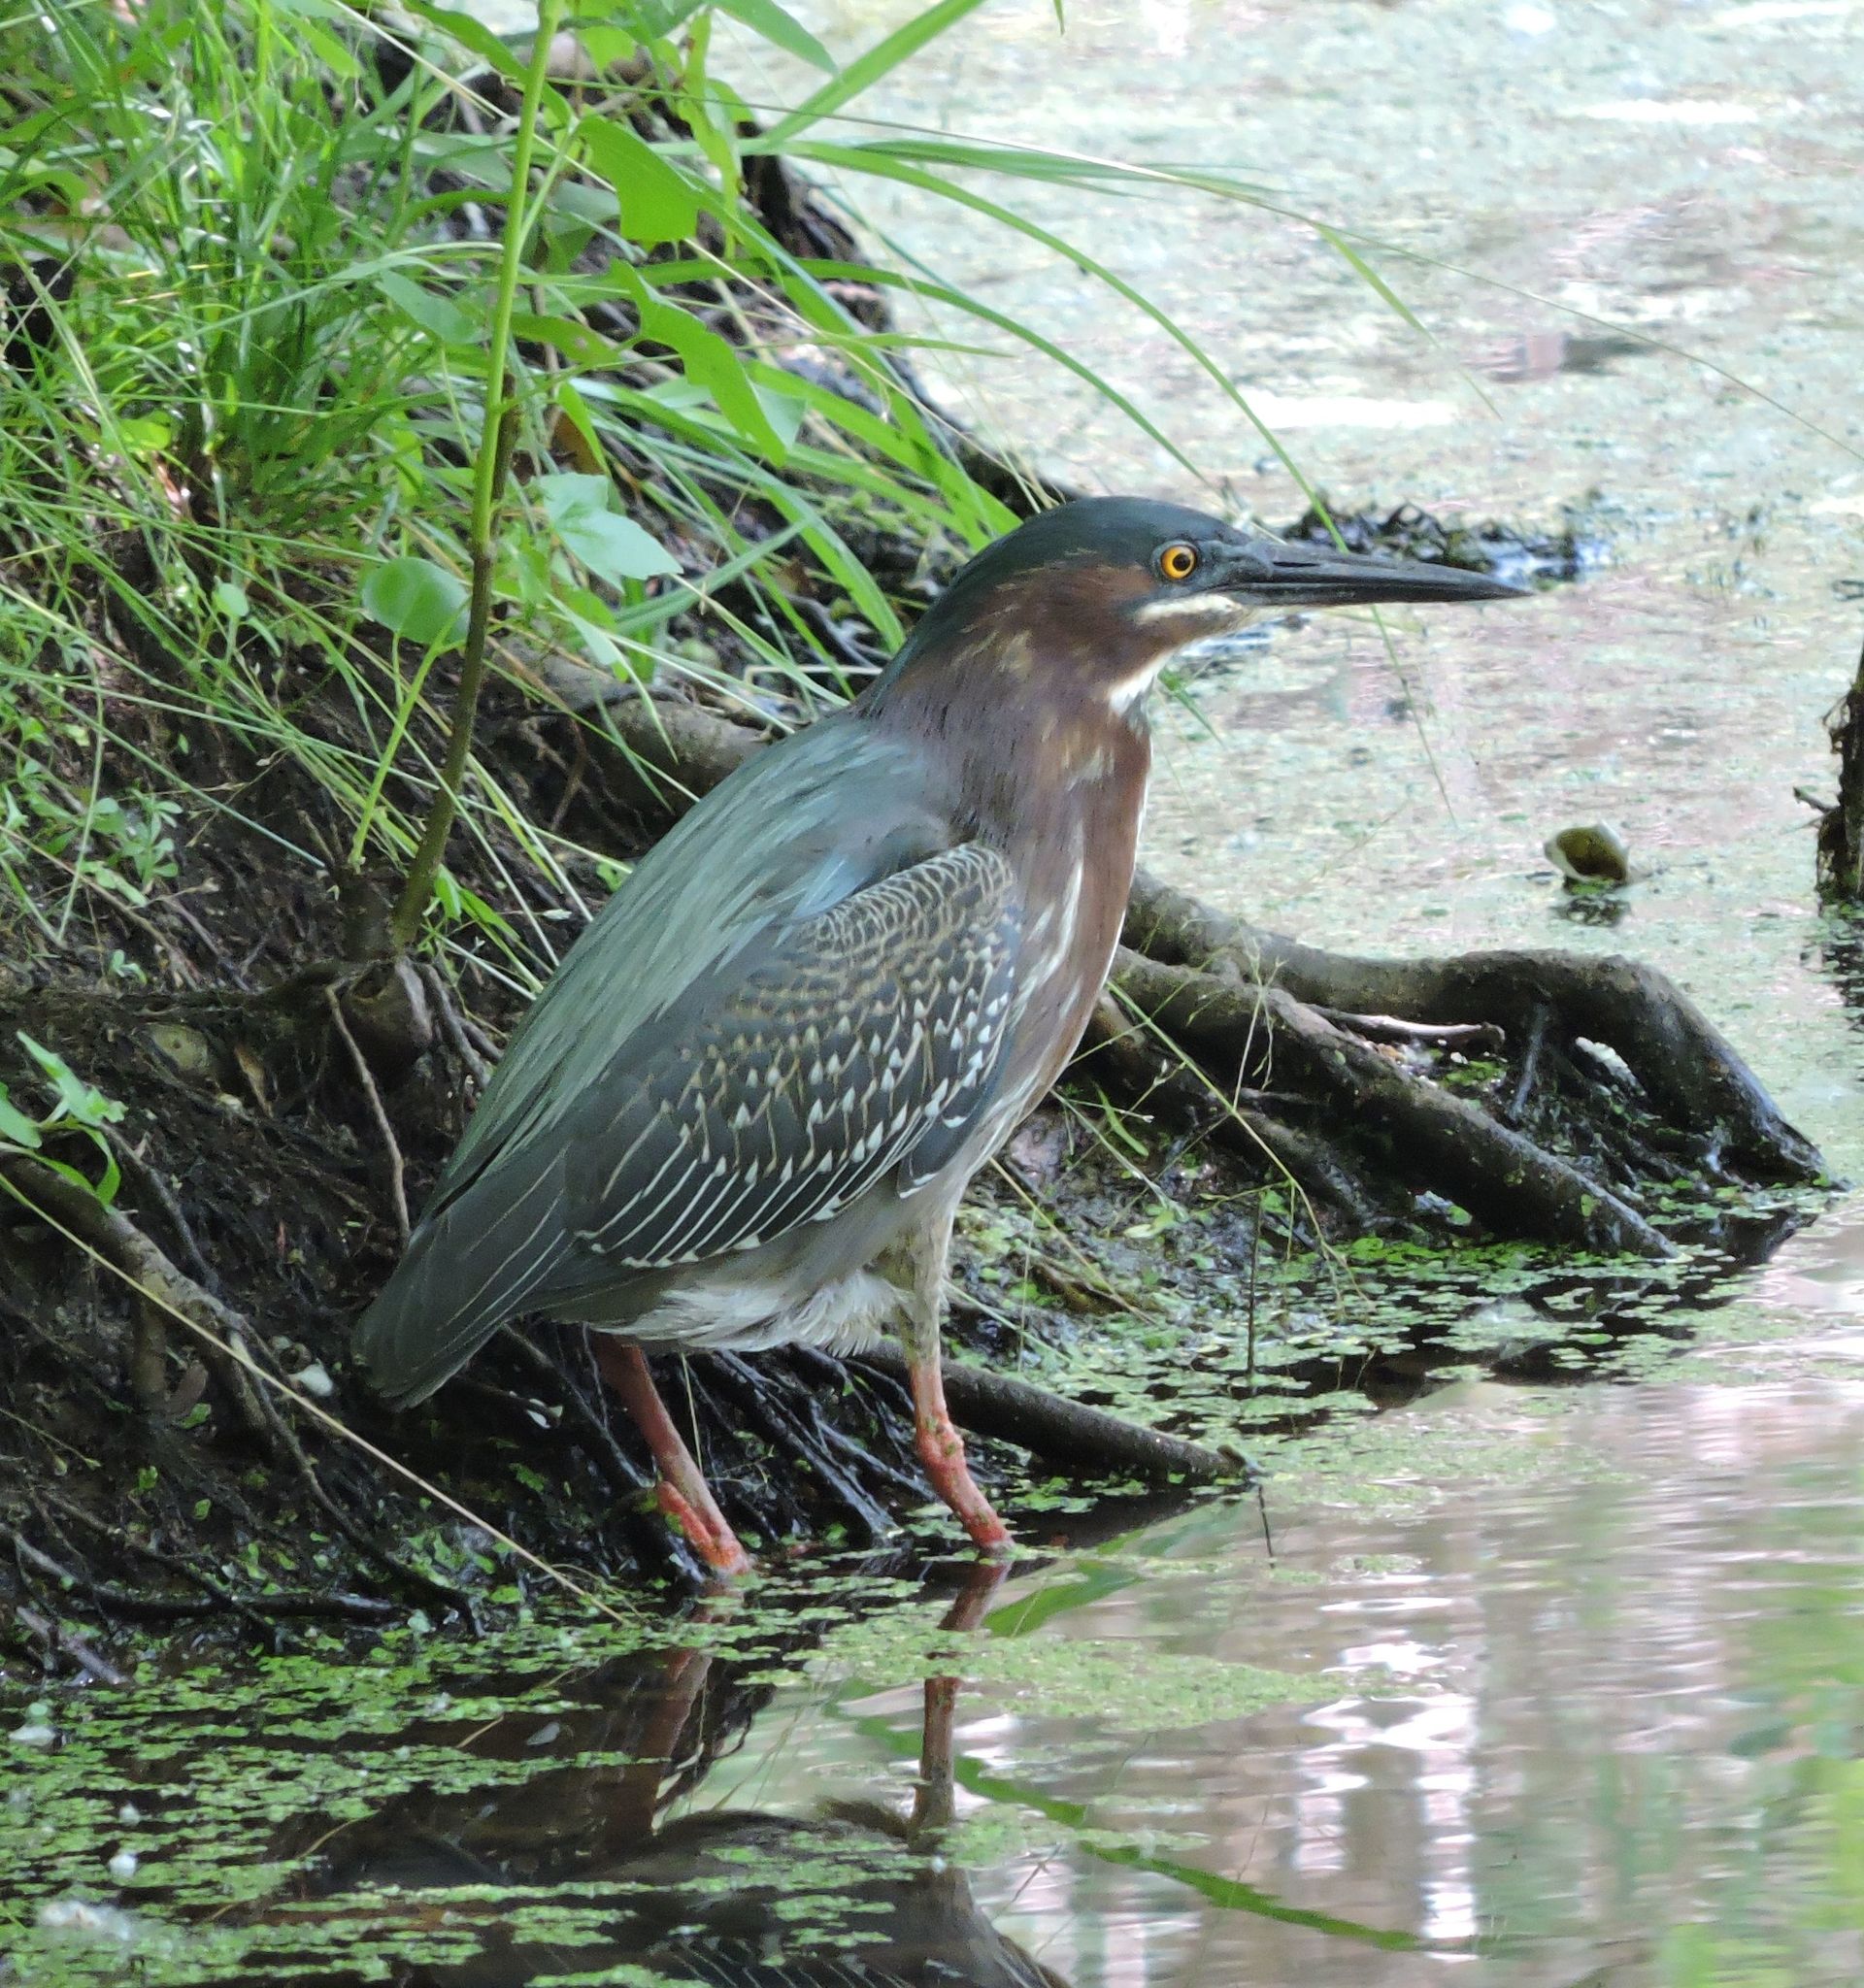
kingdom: Animalia
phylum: Chordata
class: Aves
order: Pelecaniformes
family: Ardeidae
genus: Butorides
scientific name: Butorides virescens
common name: Green heron
